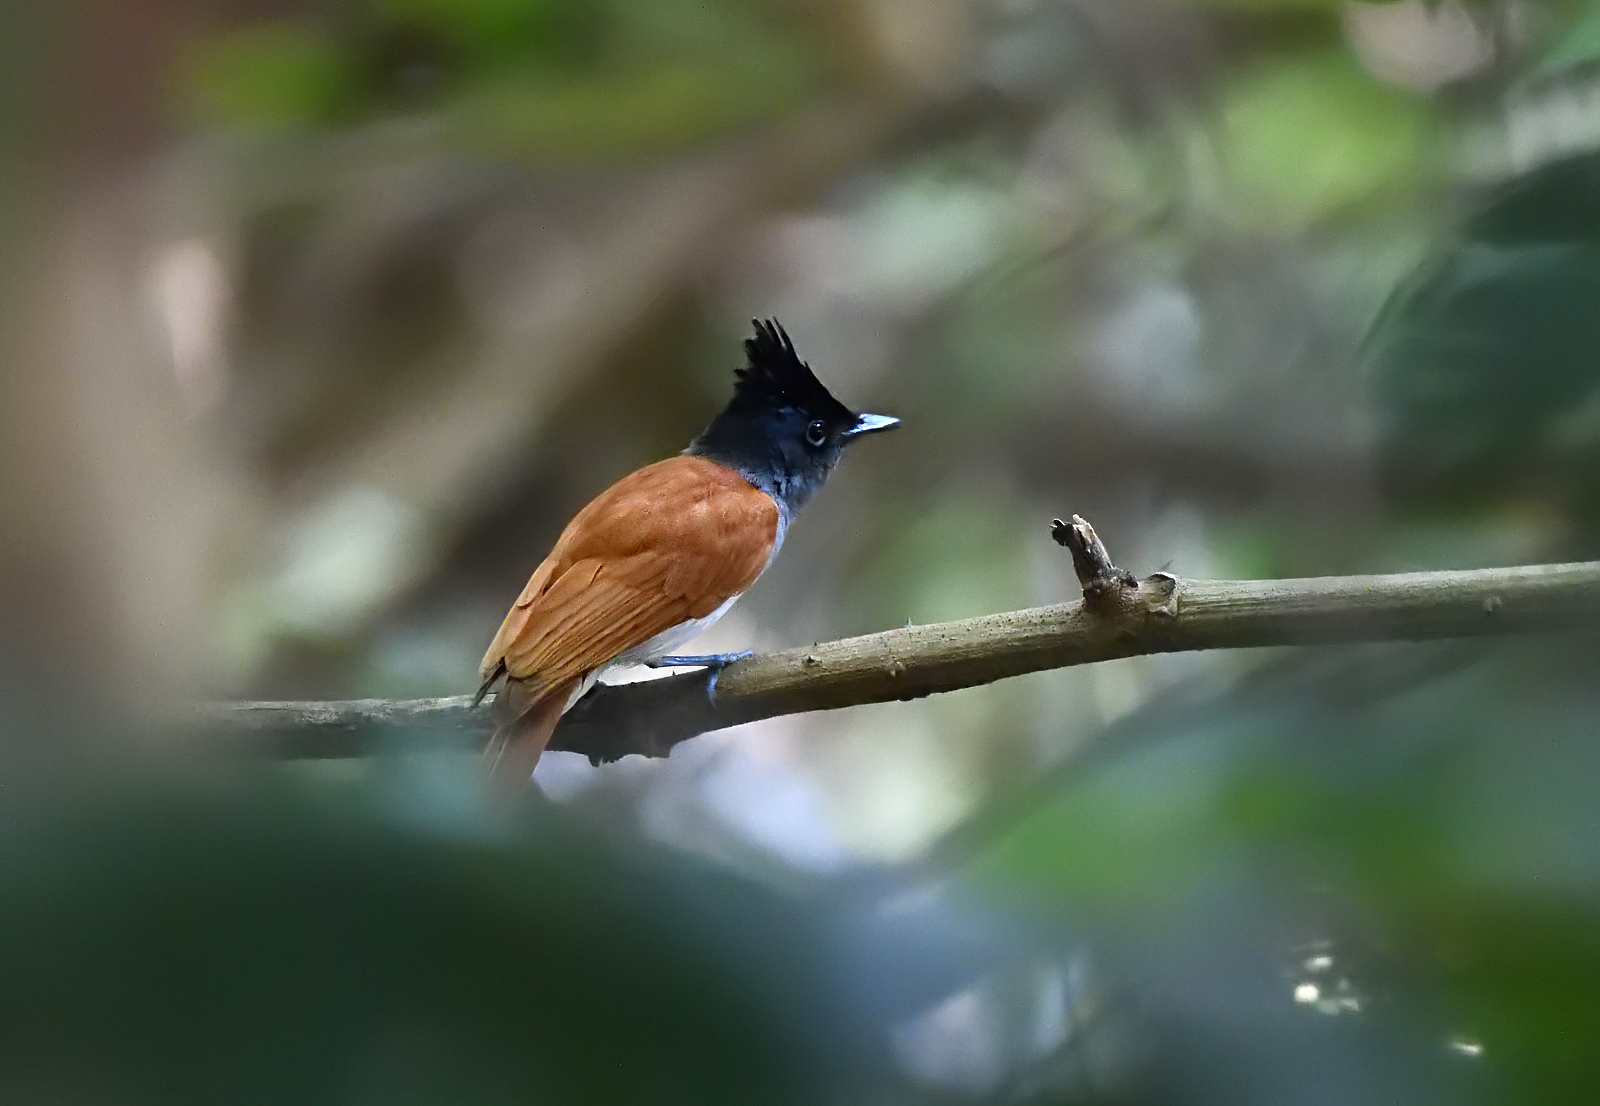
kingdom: Animalia
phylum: Chordata
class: Aves
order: Passeriformes
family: Monarchidae
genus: Terpsiphone
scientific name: Terpsiphone paradisi
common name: Indian paradise flycatcher
